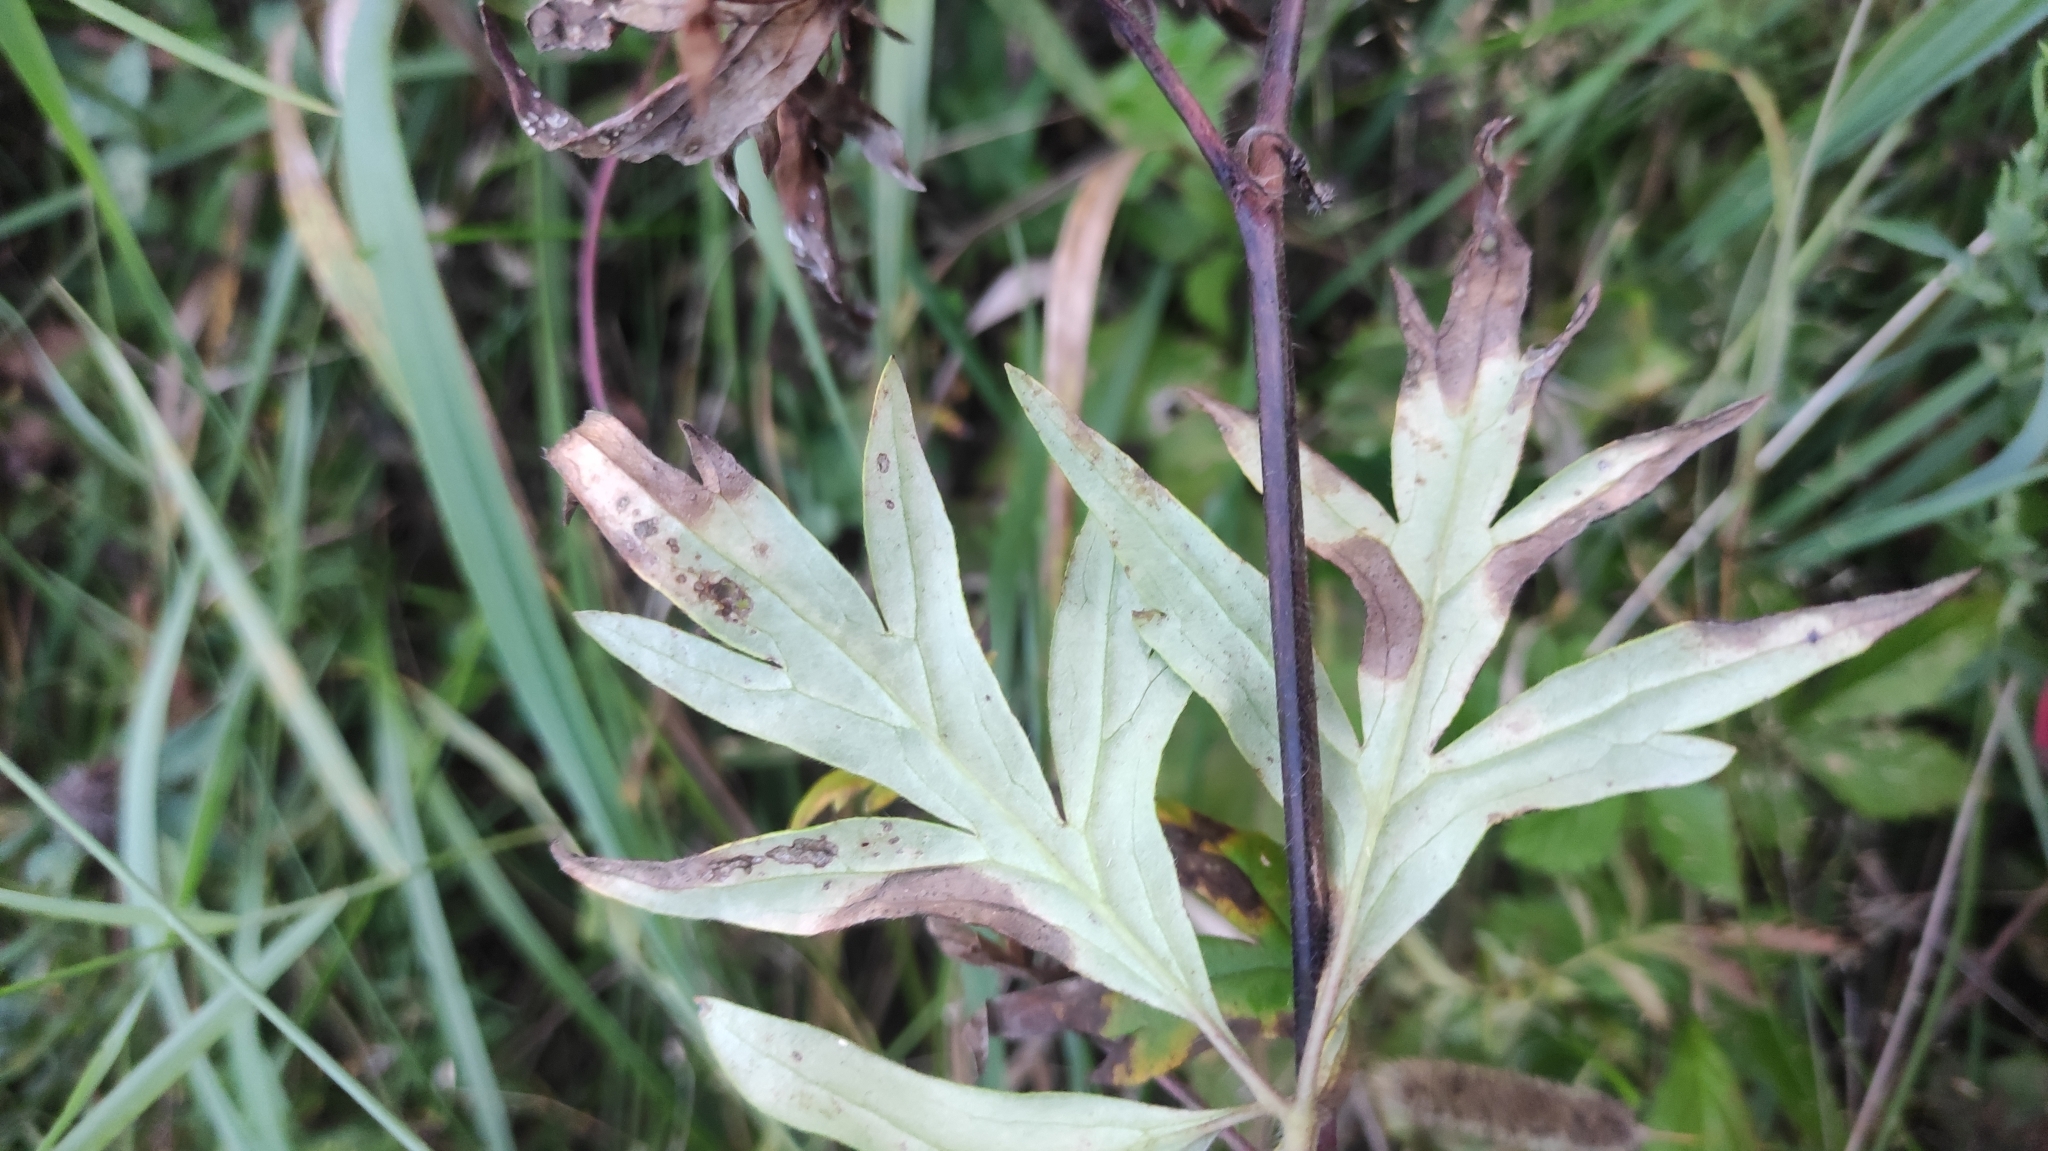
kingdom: Plantae
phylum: Tracheophyta
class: Magnoliopsida
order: Ranunculales
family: Ranunculaceae
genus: Aconitum
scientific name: Aconitum volubile
